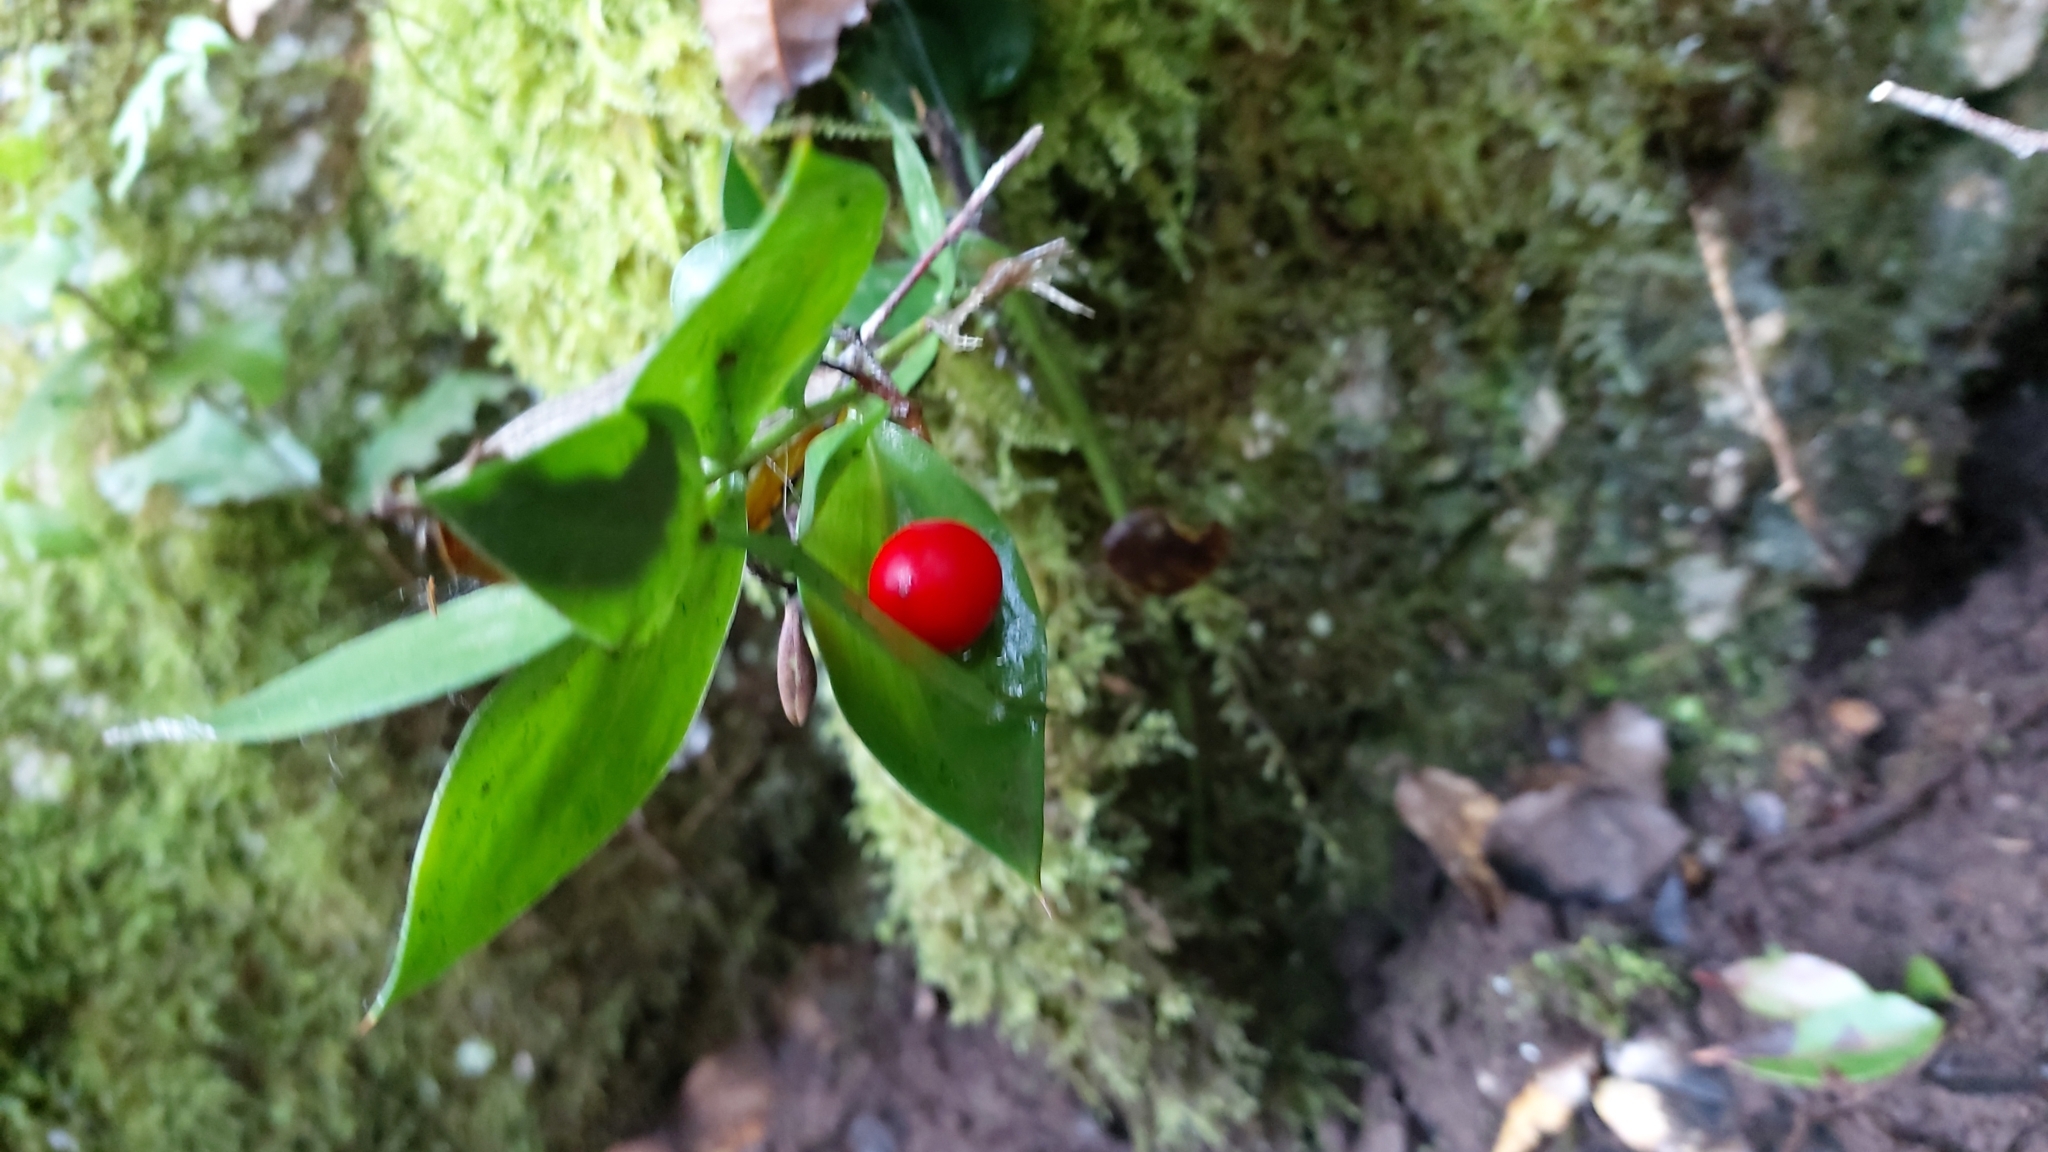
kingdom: Plantae
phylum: Tracheophyta
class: Liliopsida
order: Asparagales
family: Asparagaceae
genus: Ruscus
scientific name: Ruscus aculeatus
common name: Butcher's-broom
